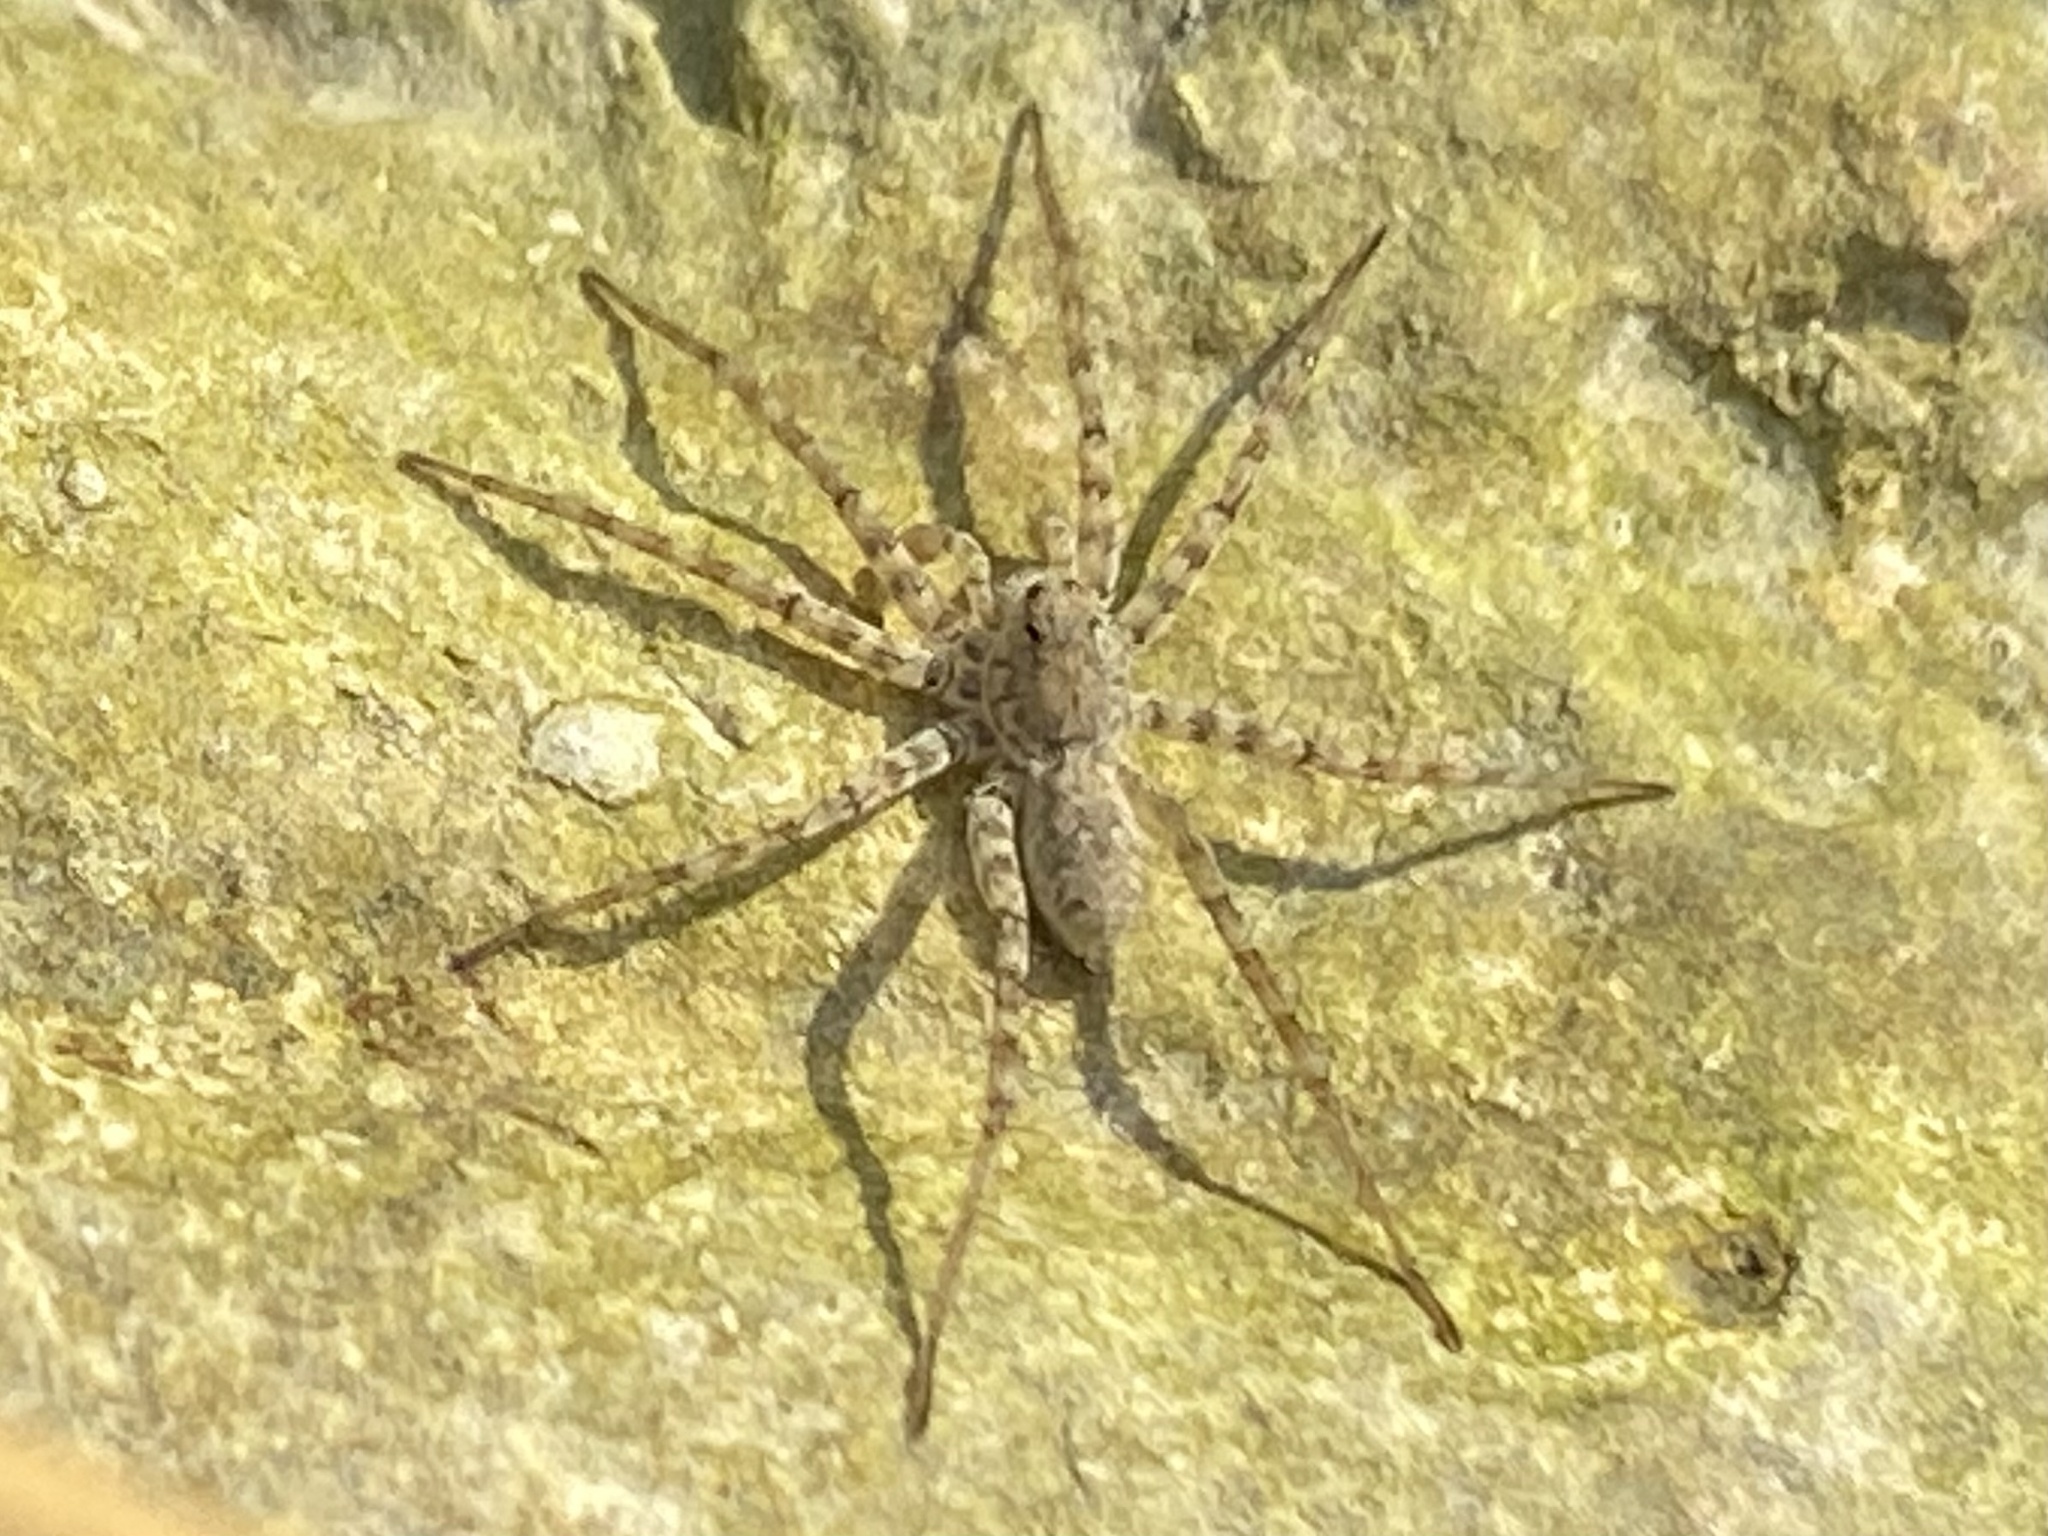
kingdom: Animalia
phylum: Arthropoda
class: Arachnida
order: Araneae
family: Lycosidae
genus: Pardosa
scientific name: Pardosa mercurialis
